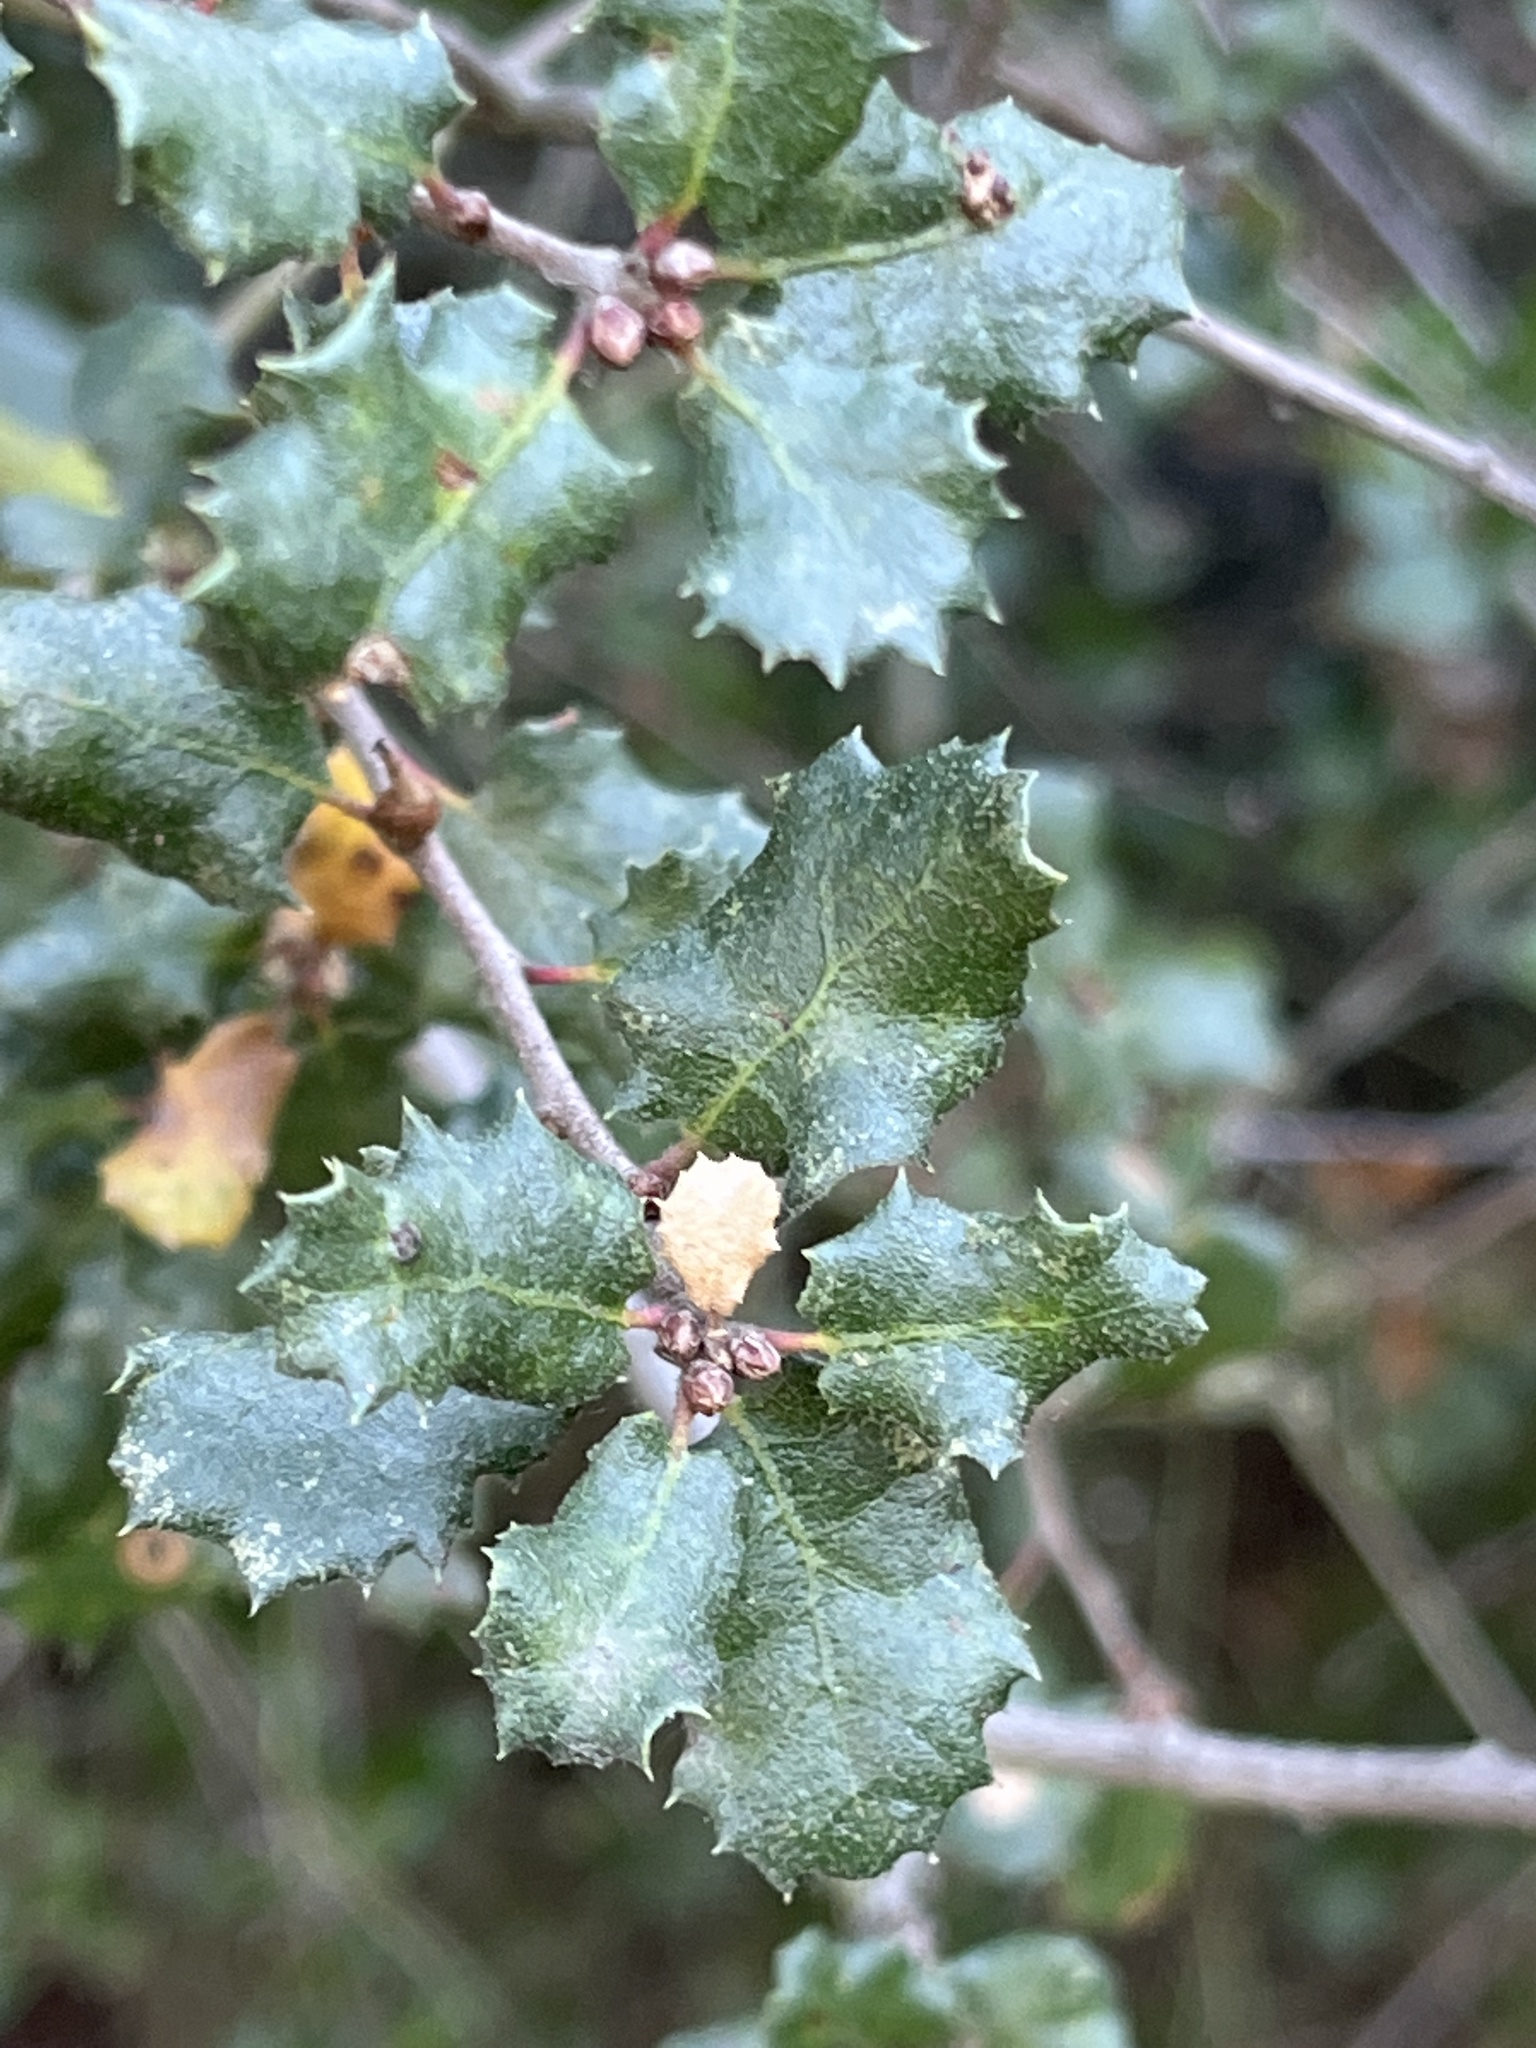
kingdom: Plantae
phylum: Tracheophyta
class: Magnoliopsida
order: Fagales
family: Fagaceae
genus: Quercus
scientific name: Quercus dumosa
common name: Coastal sage scrub oak
